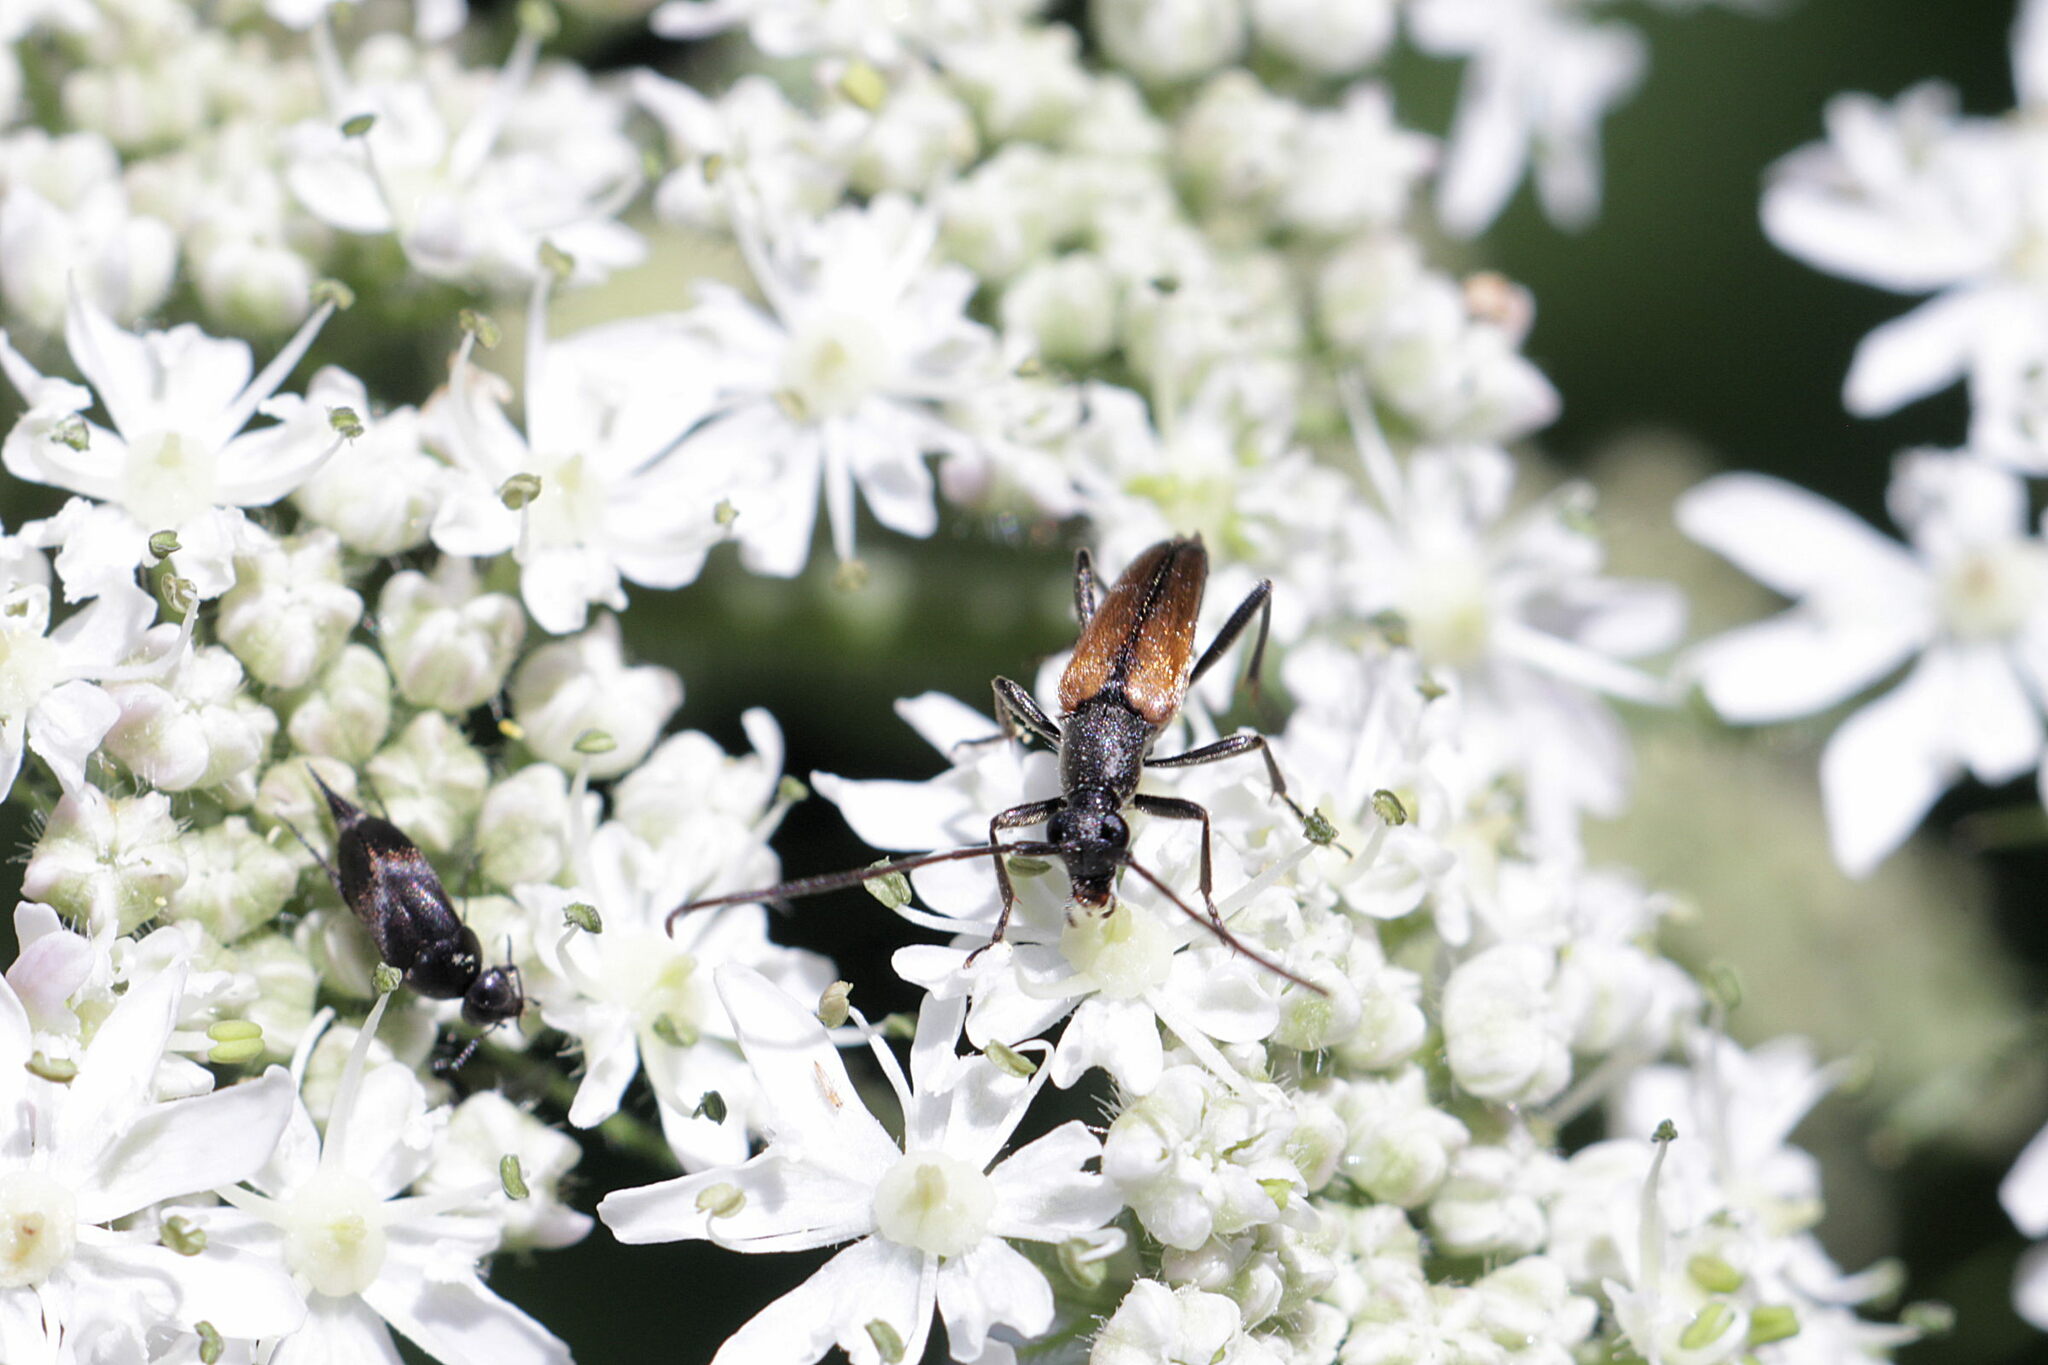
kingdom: Animalia
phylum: Arthropoda
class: Insecta
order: Coleoptera
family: Cerambycidae
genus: Stenurella
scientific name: Stenurella melanura
